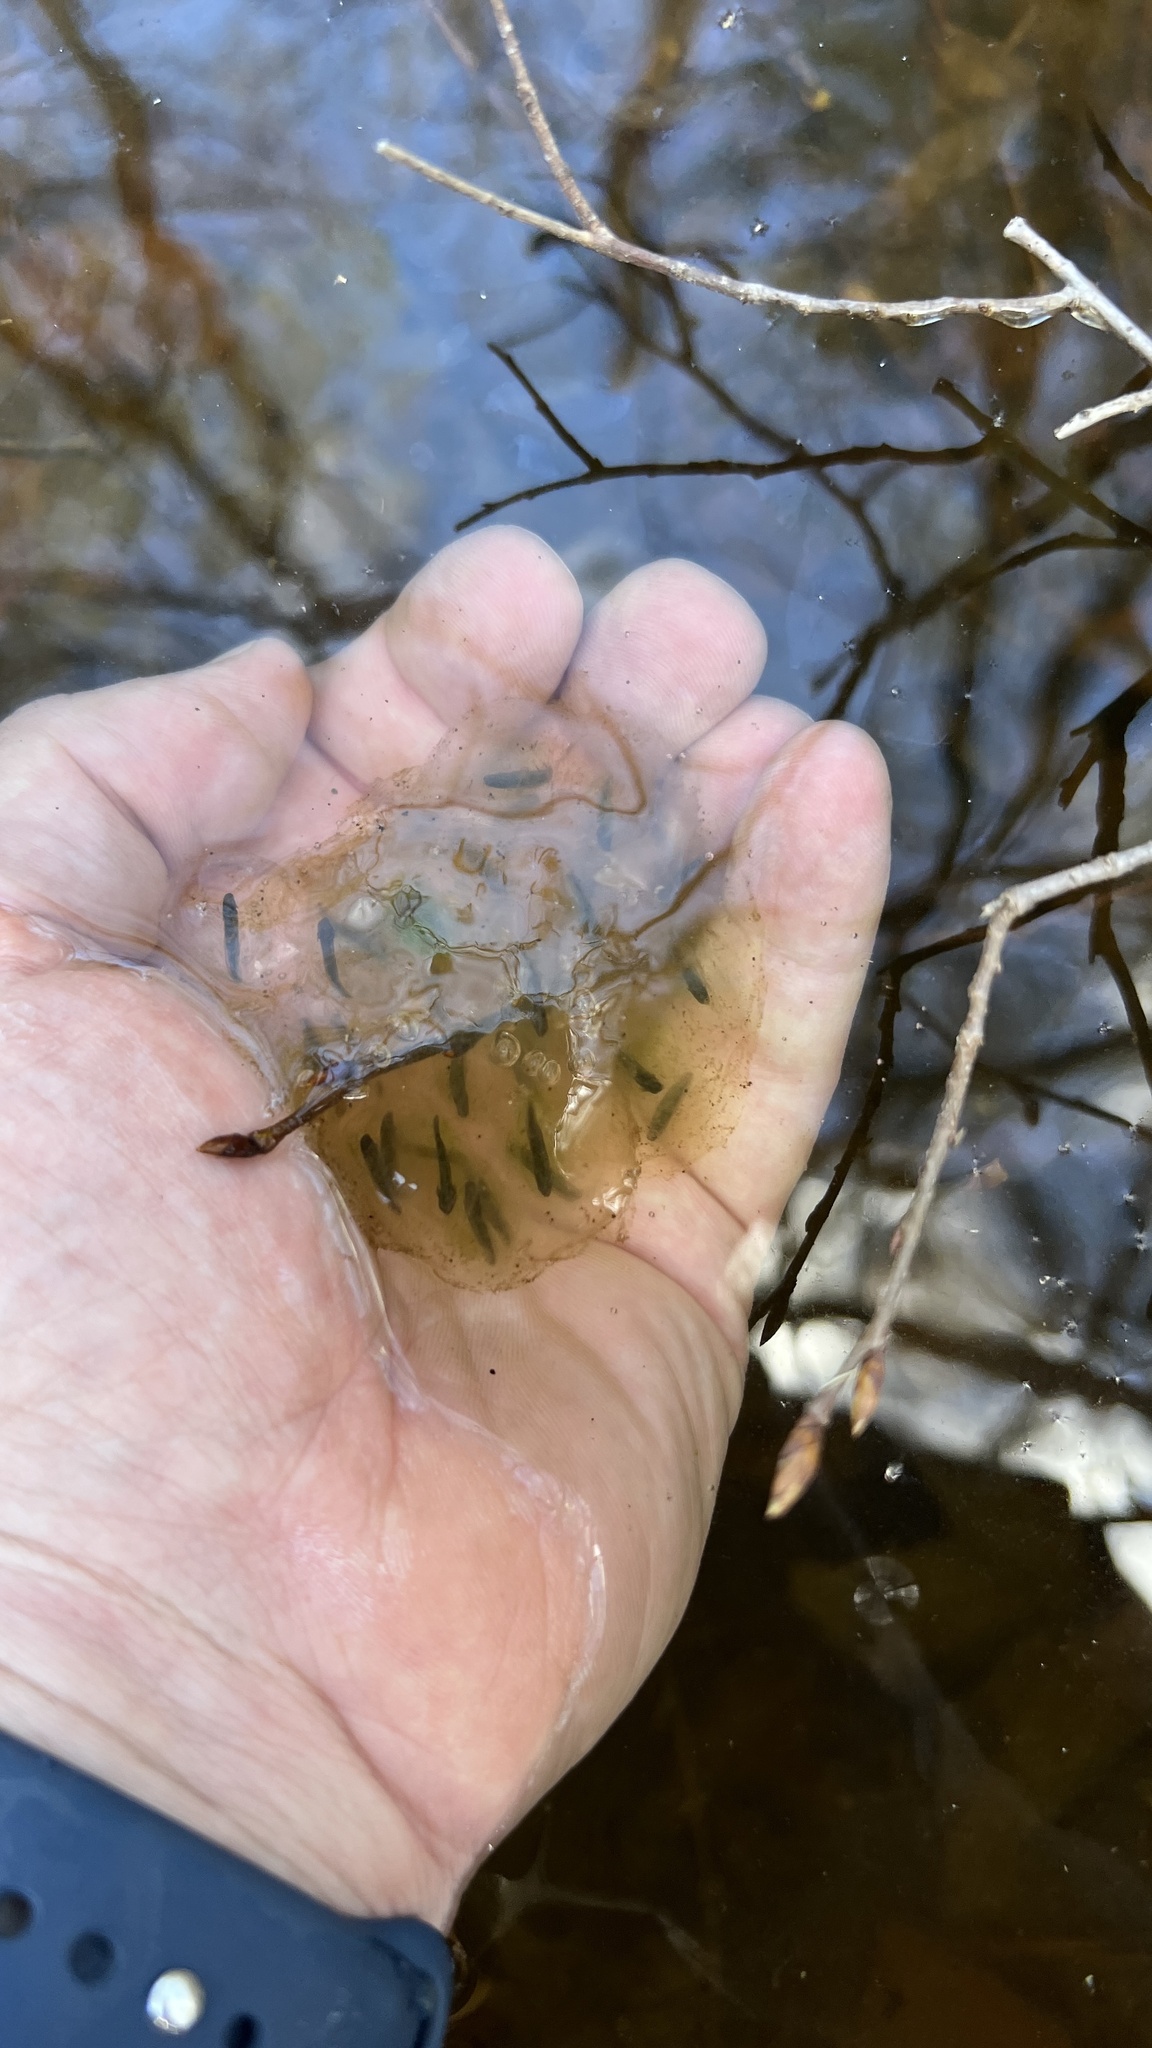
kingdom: Animalia
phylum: Chordata
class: Amphibia
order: Caudata
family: Ambystomatidae
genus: Ambystoma
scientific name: Ambystoma jeffersonianum
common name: Jefferson salamander
